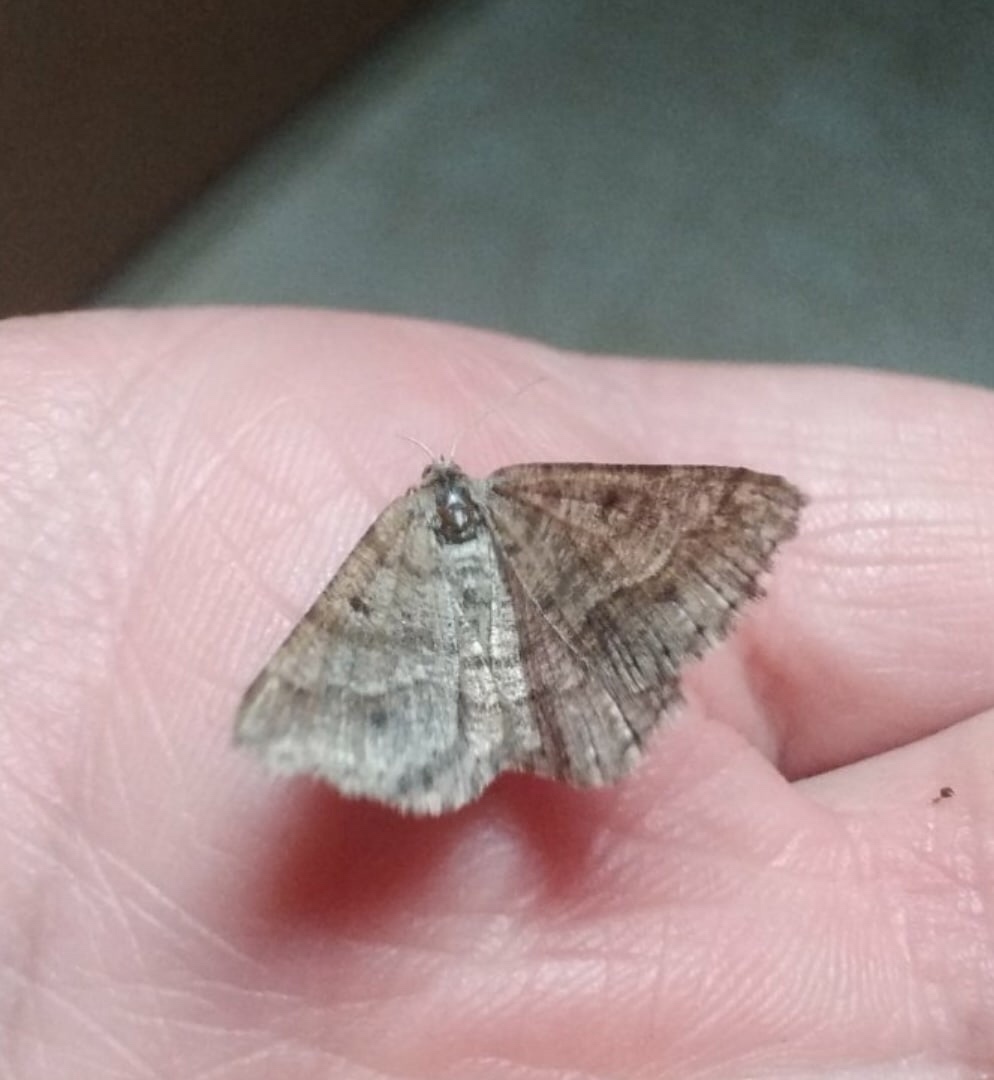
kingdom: Animalia
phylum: Arthropoda
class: Insecta
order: Lepidoptera
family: Geometridae
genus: Tephrina
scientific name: Tephrina murinaria
